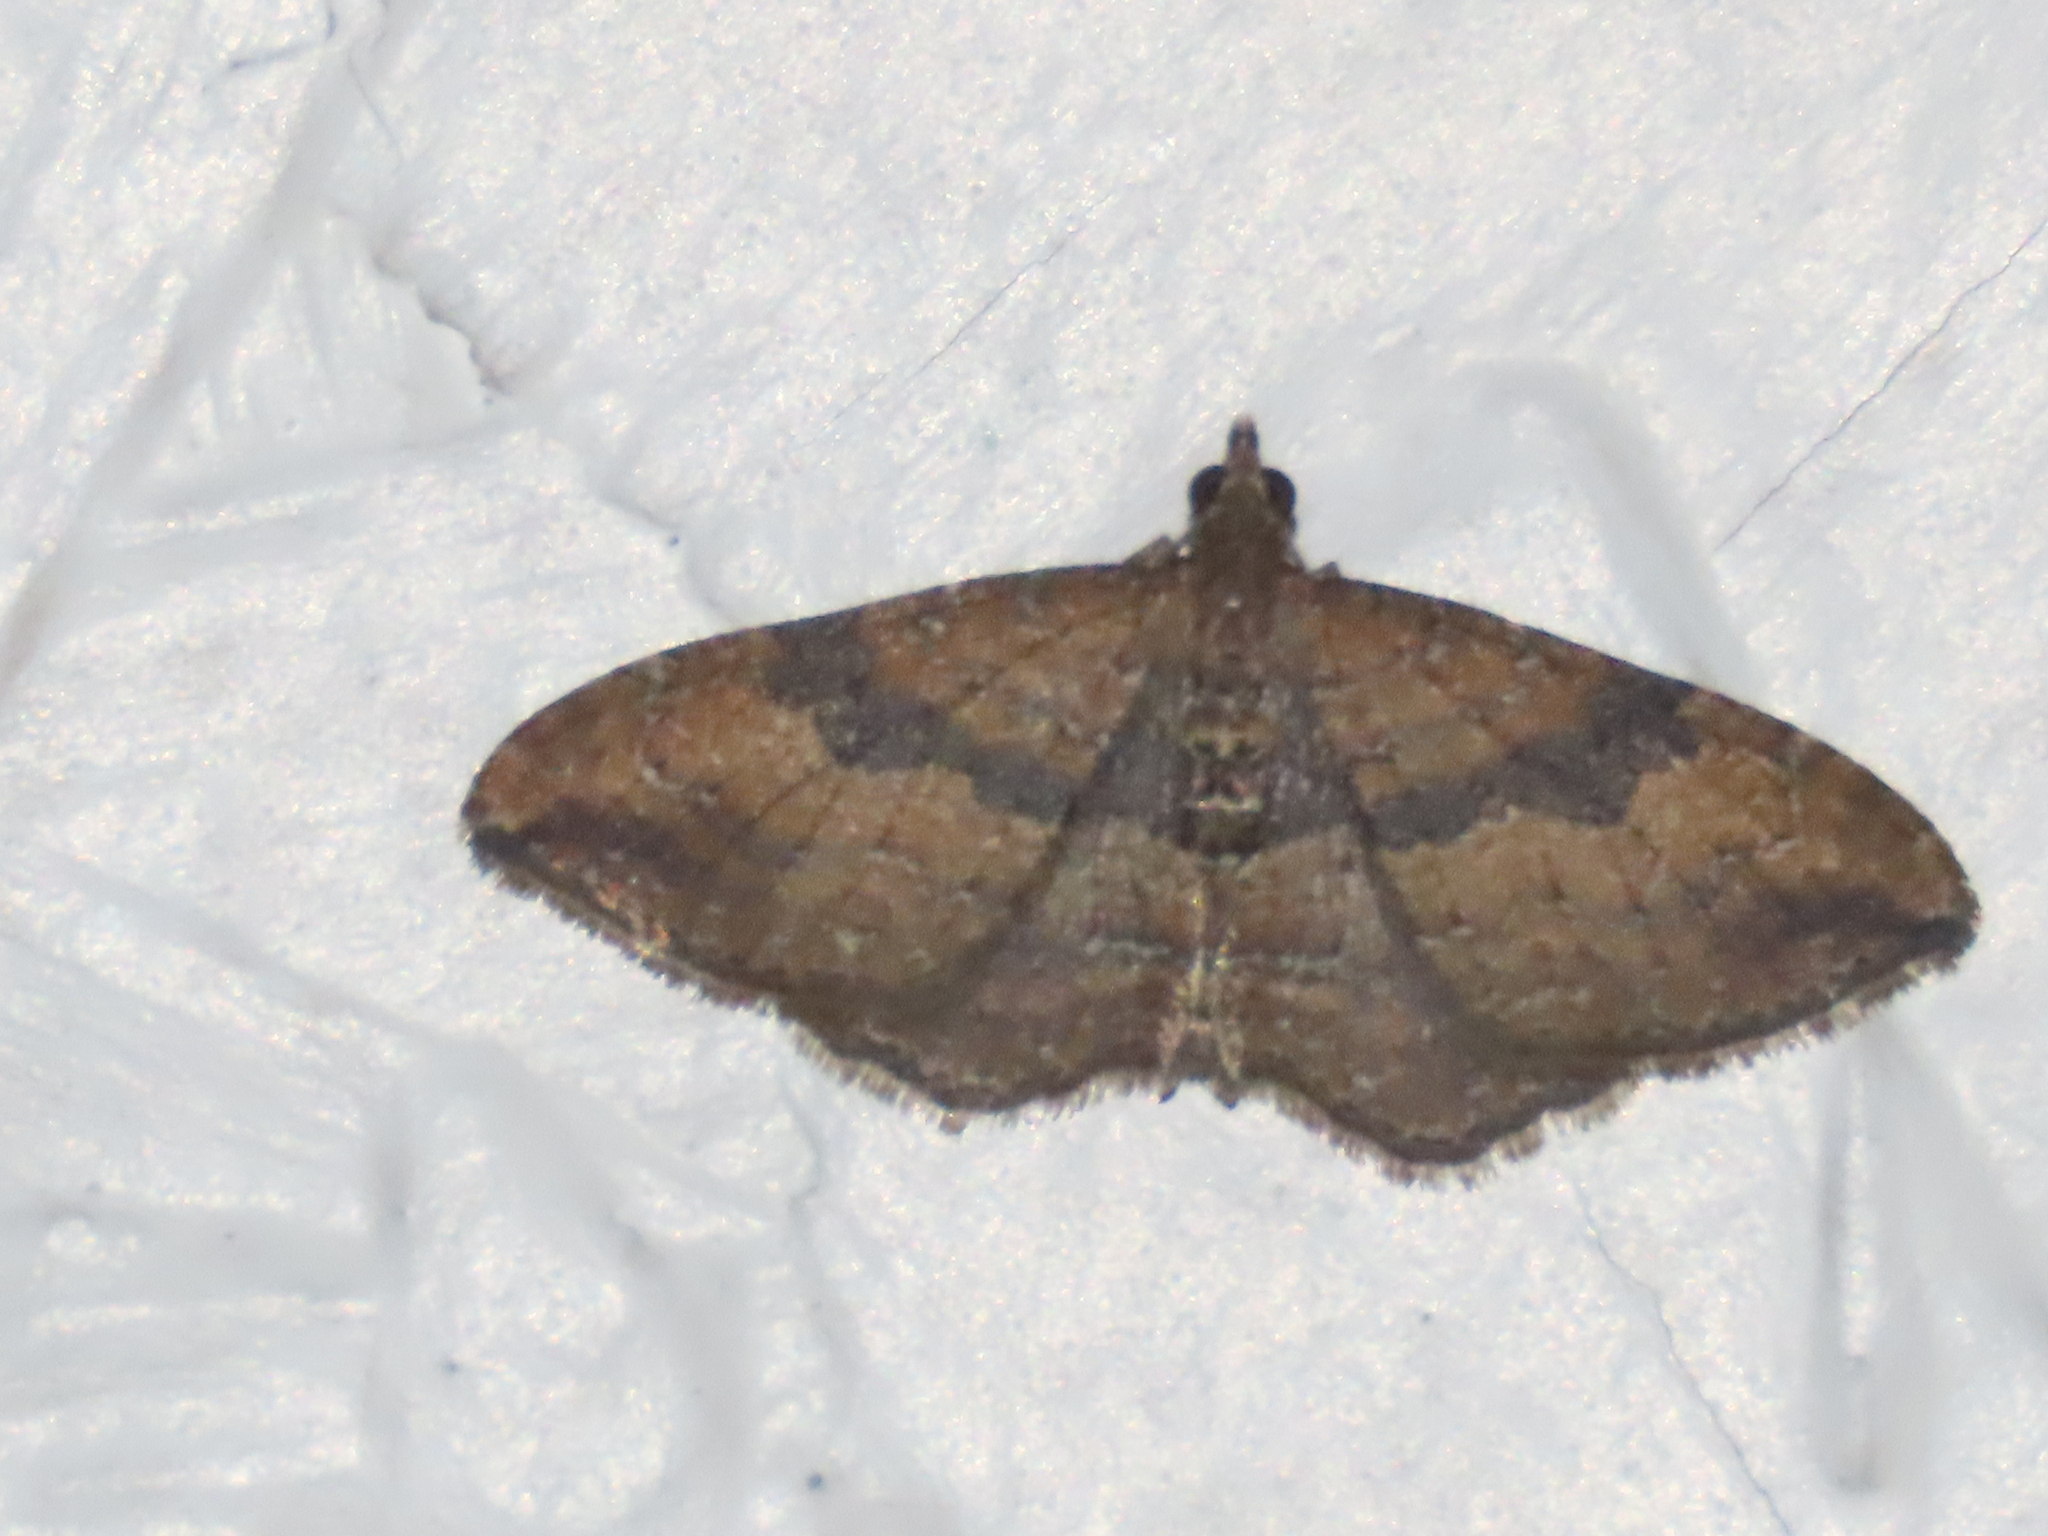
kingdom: Animalia
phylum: Arthropoda
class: Insecta
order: Lepidoptera
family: Geometridae
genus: Orthonama
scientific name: Orthonama obstipata
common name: The gem
